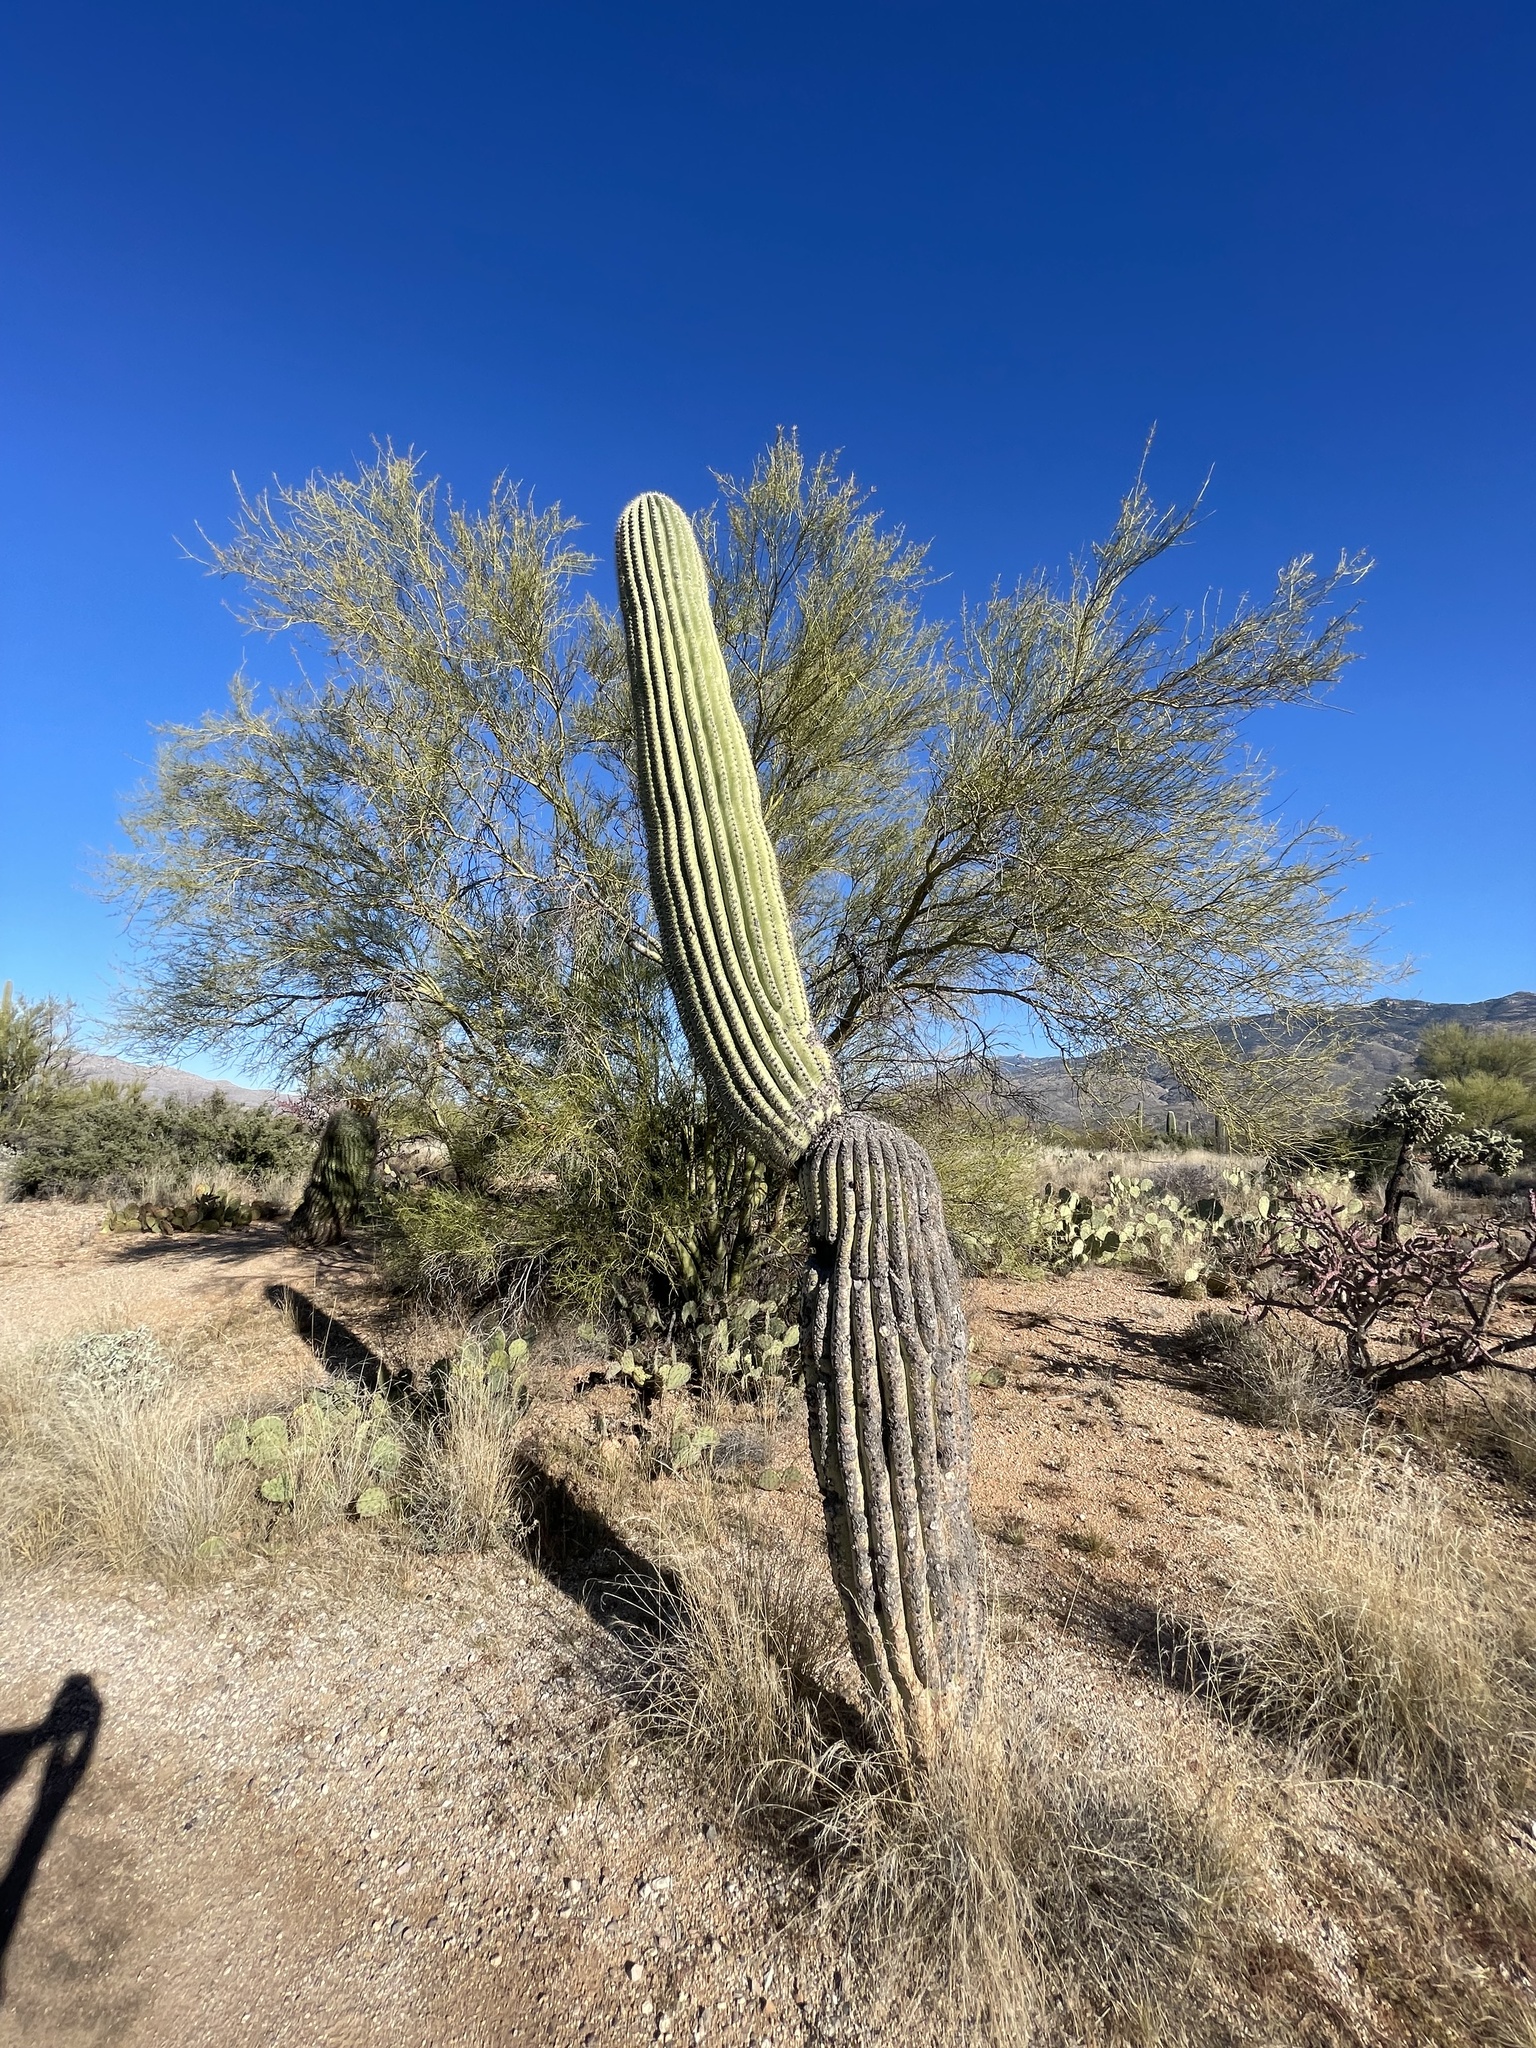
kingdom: Plantae
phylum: Tracheophyta
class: Magnoliopsida
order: Caryophyllales
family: Cactaceae
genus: Carnegiea
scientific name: Carnegiea gigantea
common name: Saguaro
